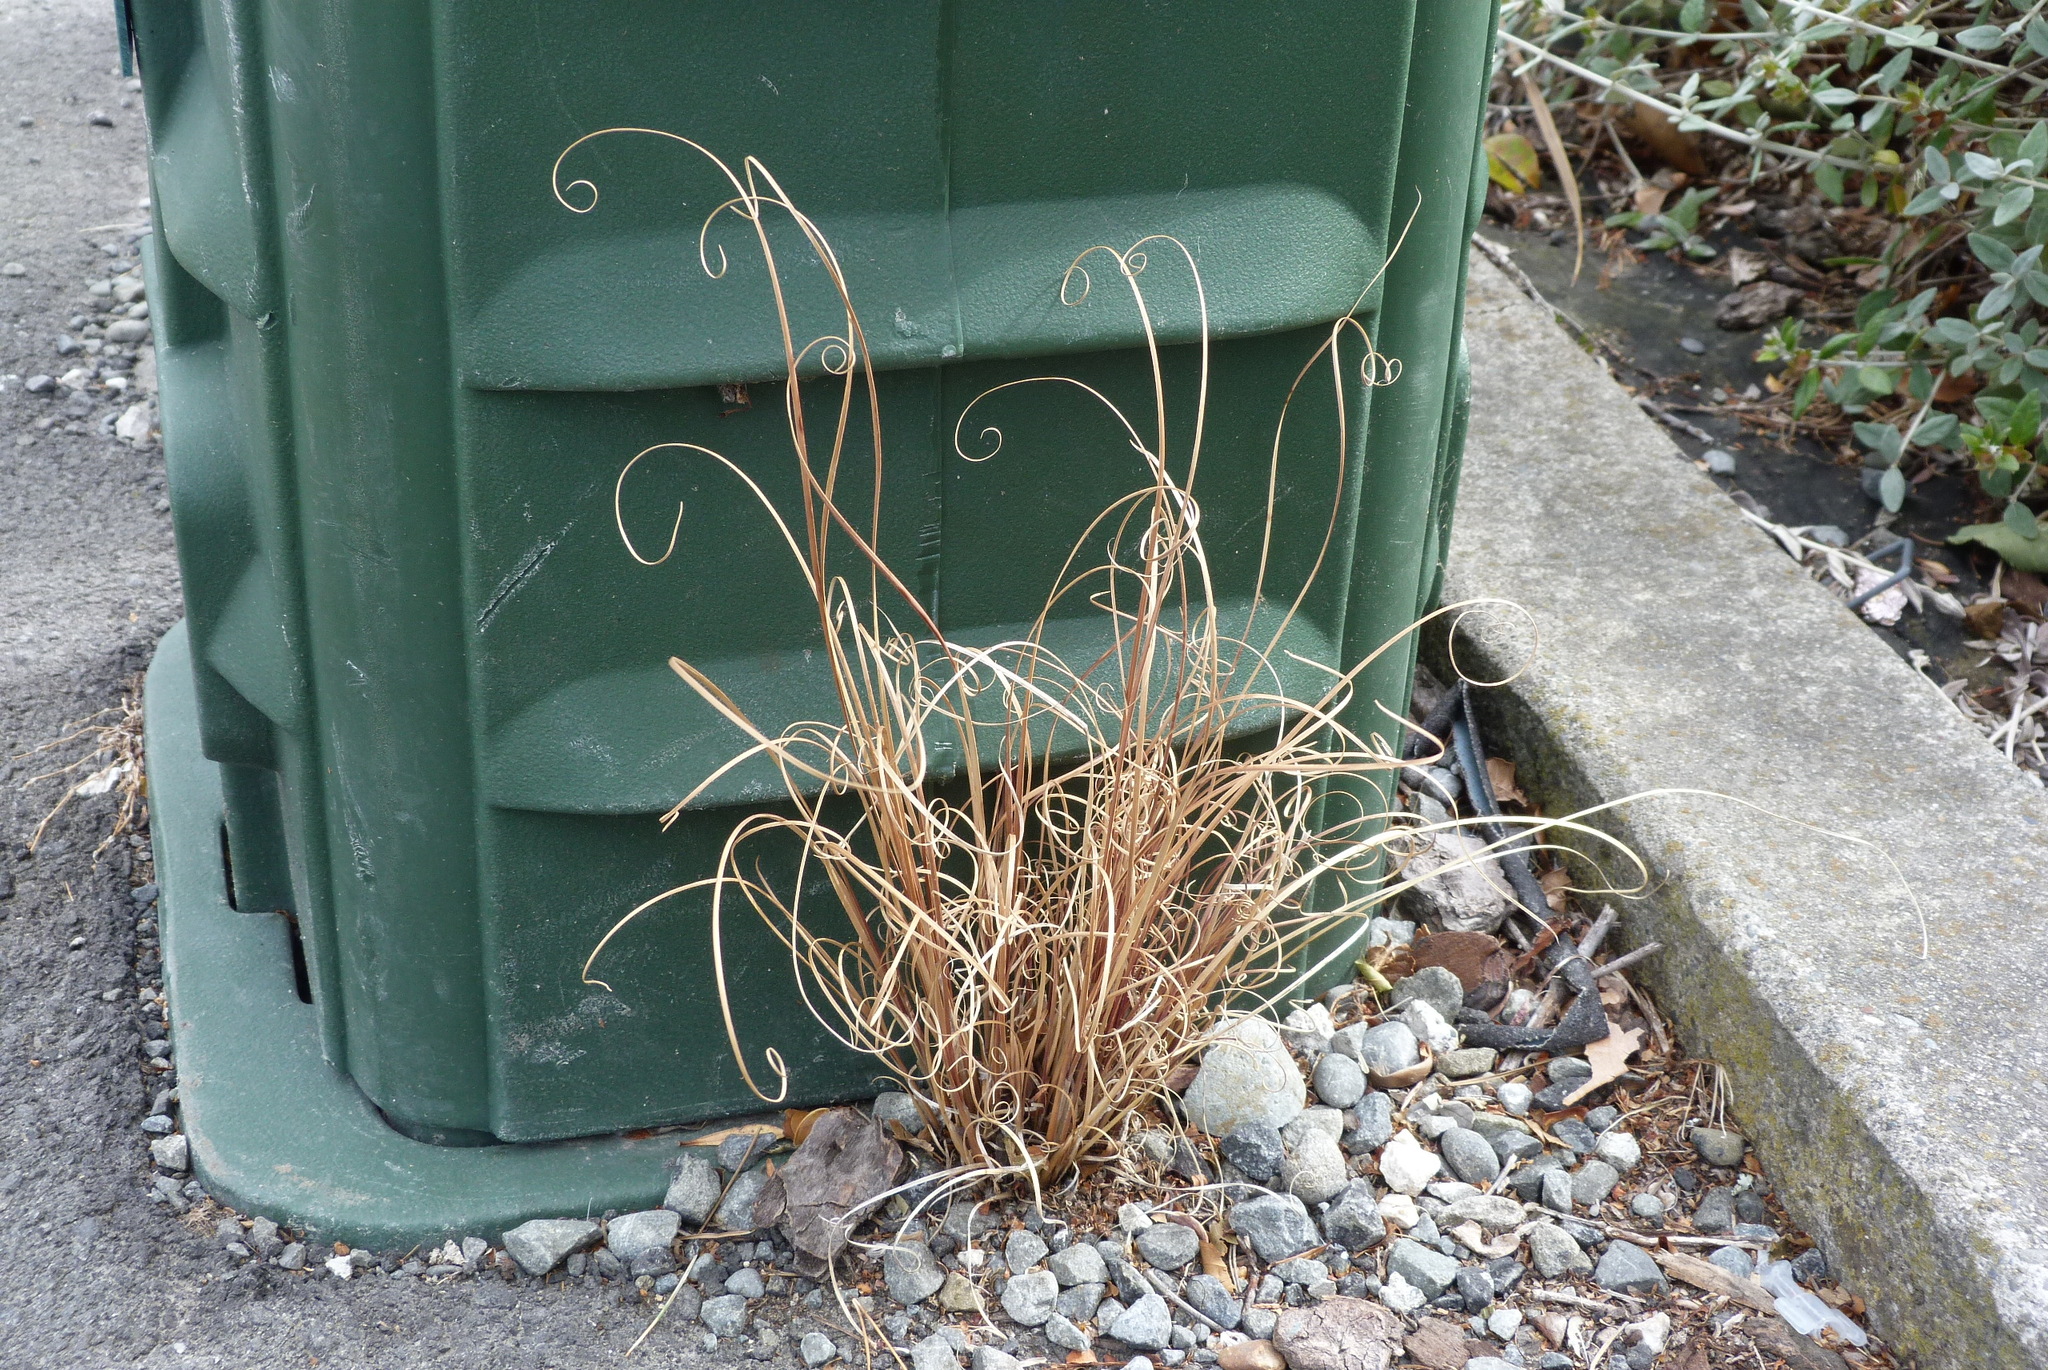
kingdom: Plantae
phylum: Tracheophyta
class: Liliopsida
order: Poales
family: Cyperaceae
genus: Carex
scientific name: Carex buchananii
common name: Leatherleaf sedge
